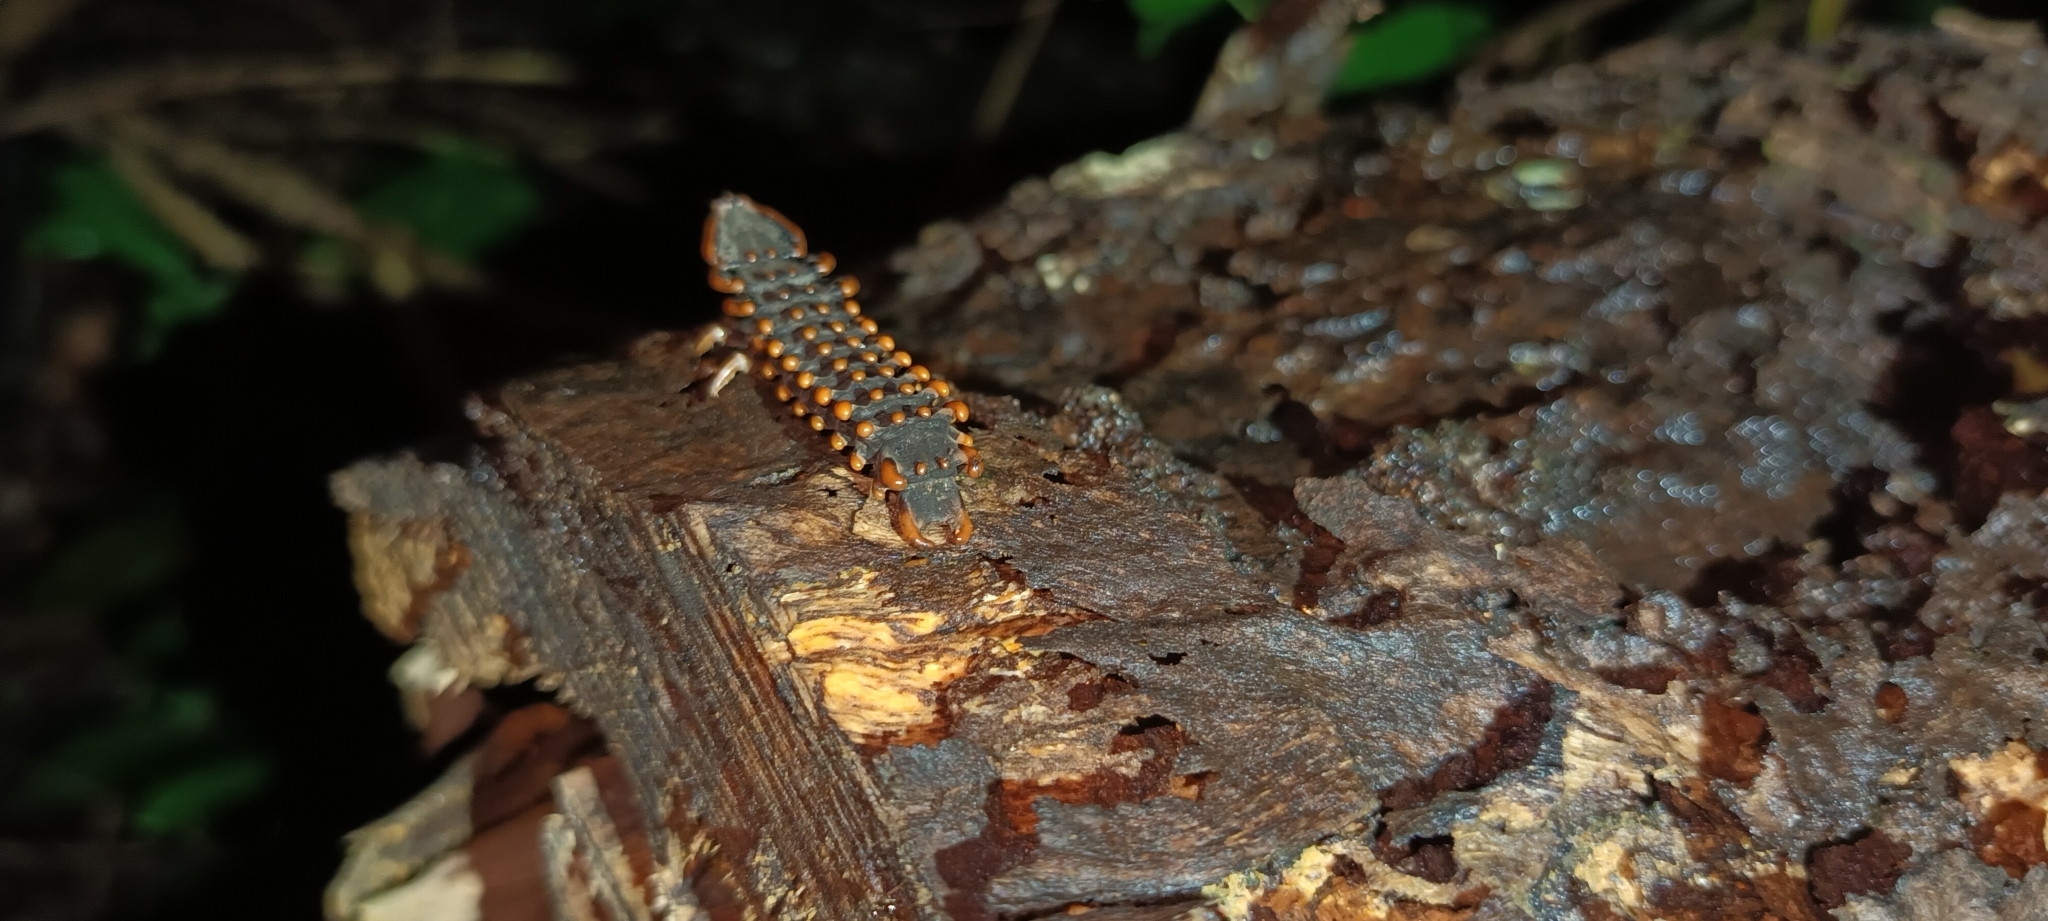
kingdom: Animalia
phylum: Arthropoda
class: Insecta
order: Coleoptera
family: Lycidae
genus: Platerodrilus
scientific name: Platerodrilus ngi
